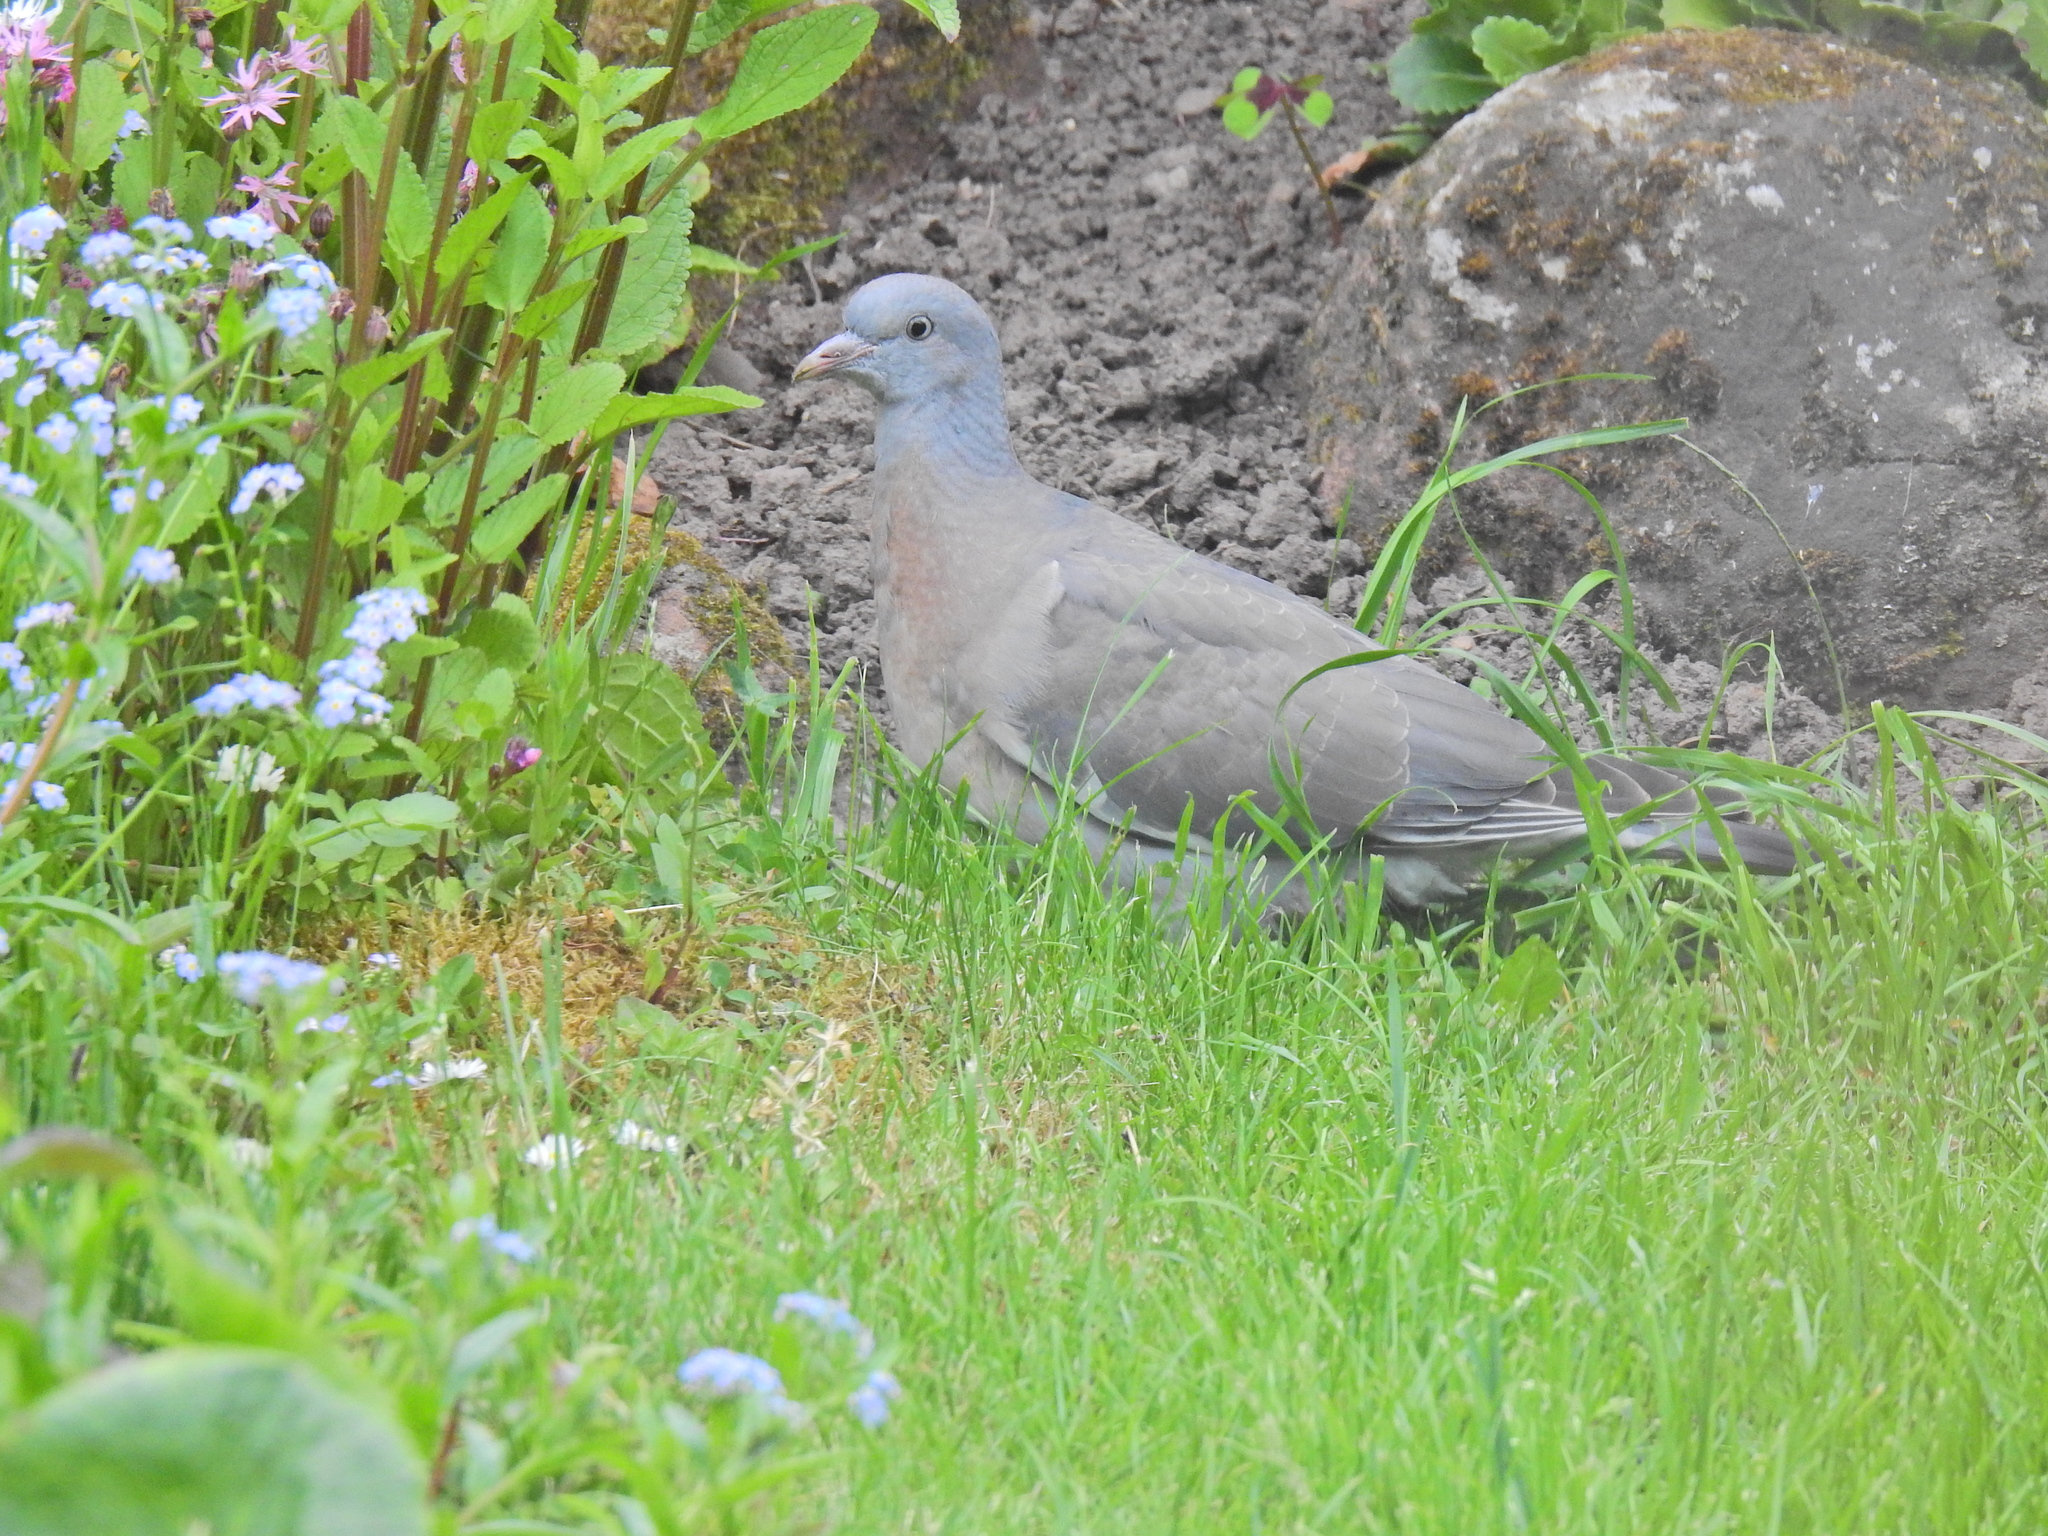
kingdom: Animalia
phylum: Chordata
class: Aves
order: Columbiformes
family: Columbidae
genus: Columba
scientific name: Columba palumbus
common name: Common wood pigeon
